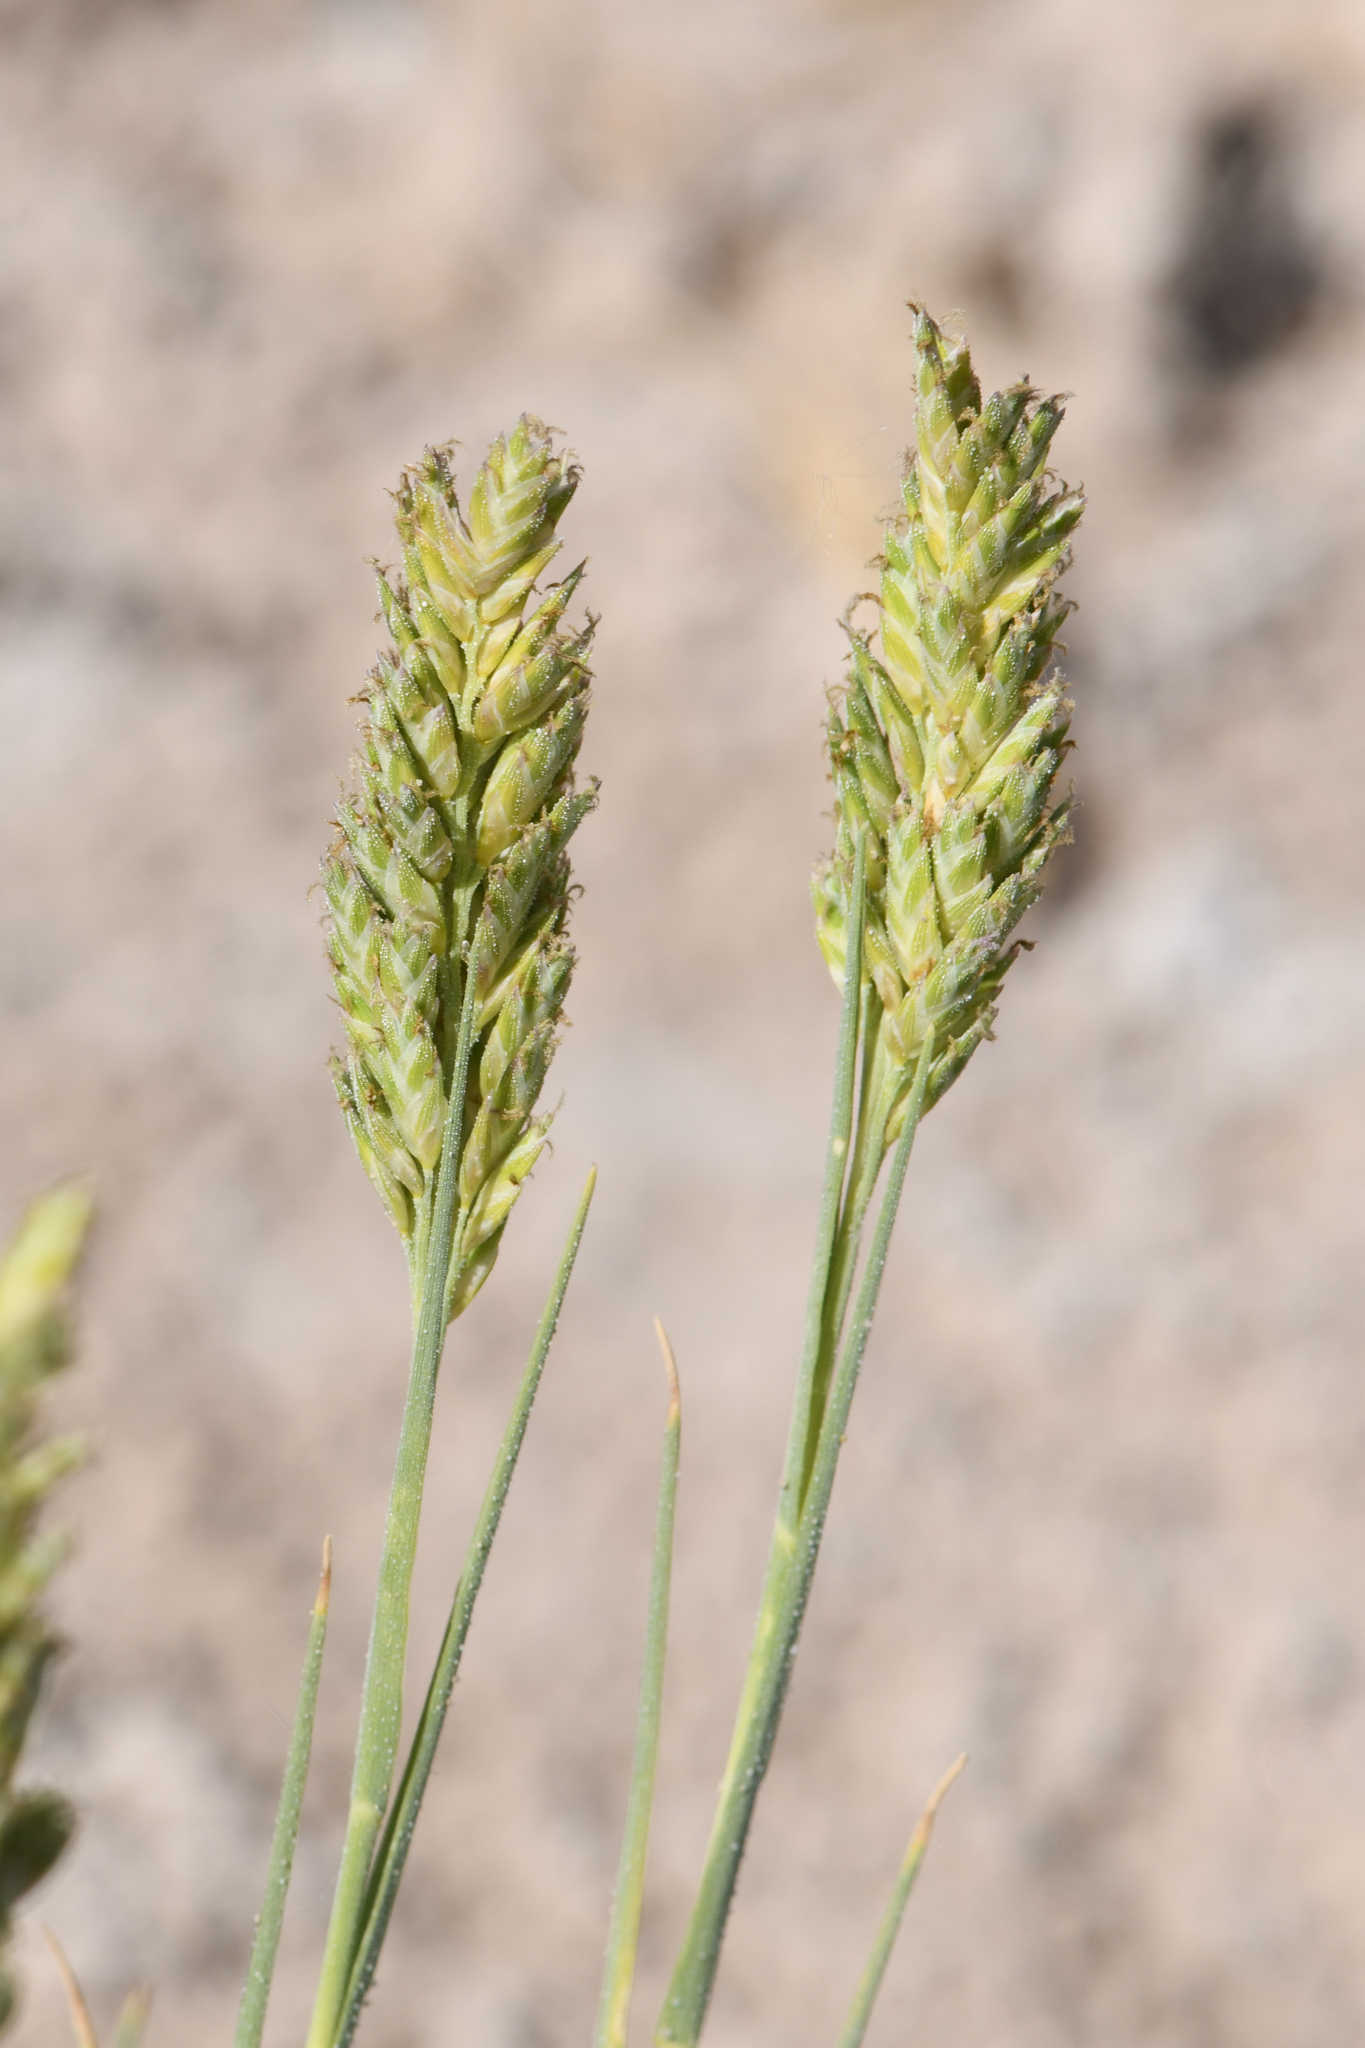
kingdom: Plantae
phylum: Tracheophyta
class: Liliopsida
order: Poales
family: Poaceae
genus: Distichlis
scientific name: Distichlis spicata
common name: Saltgrass
